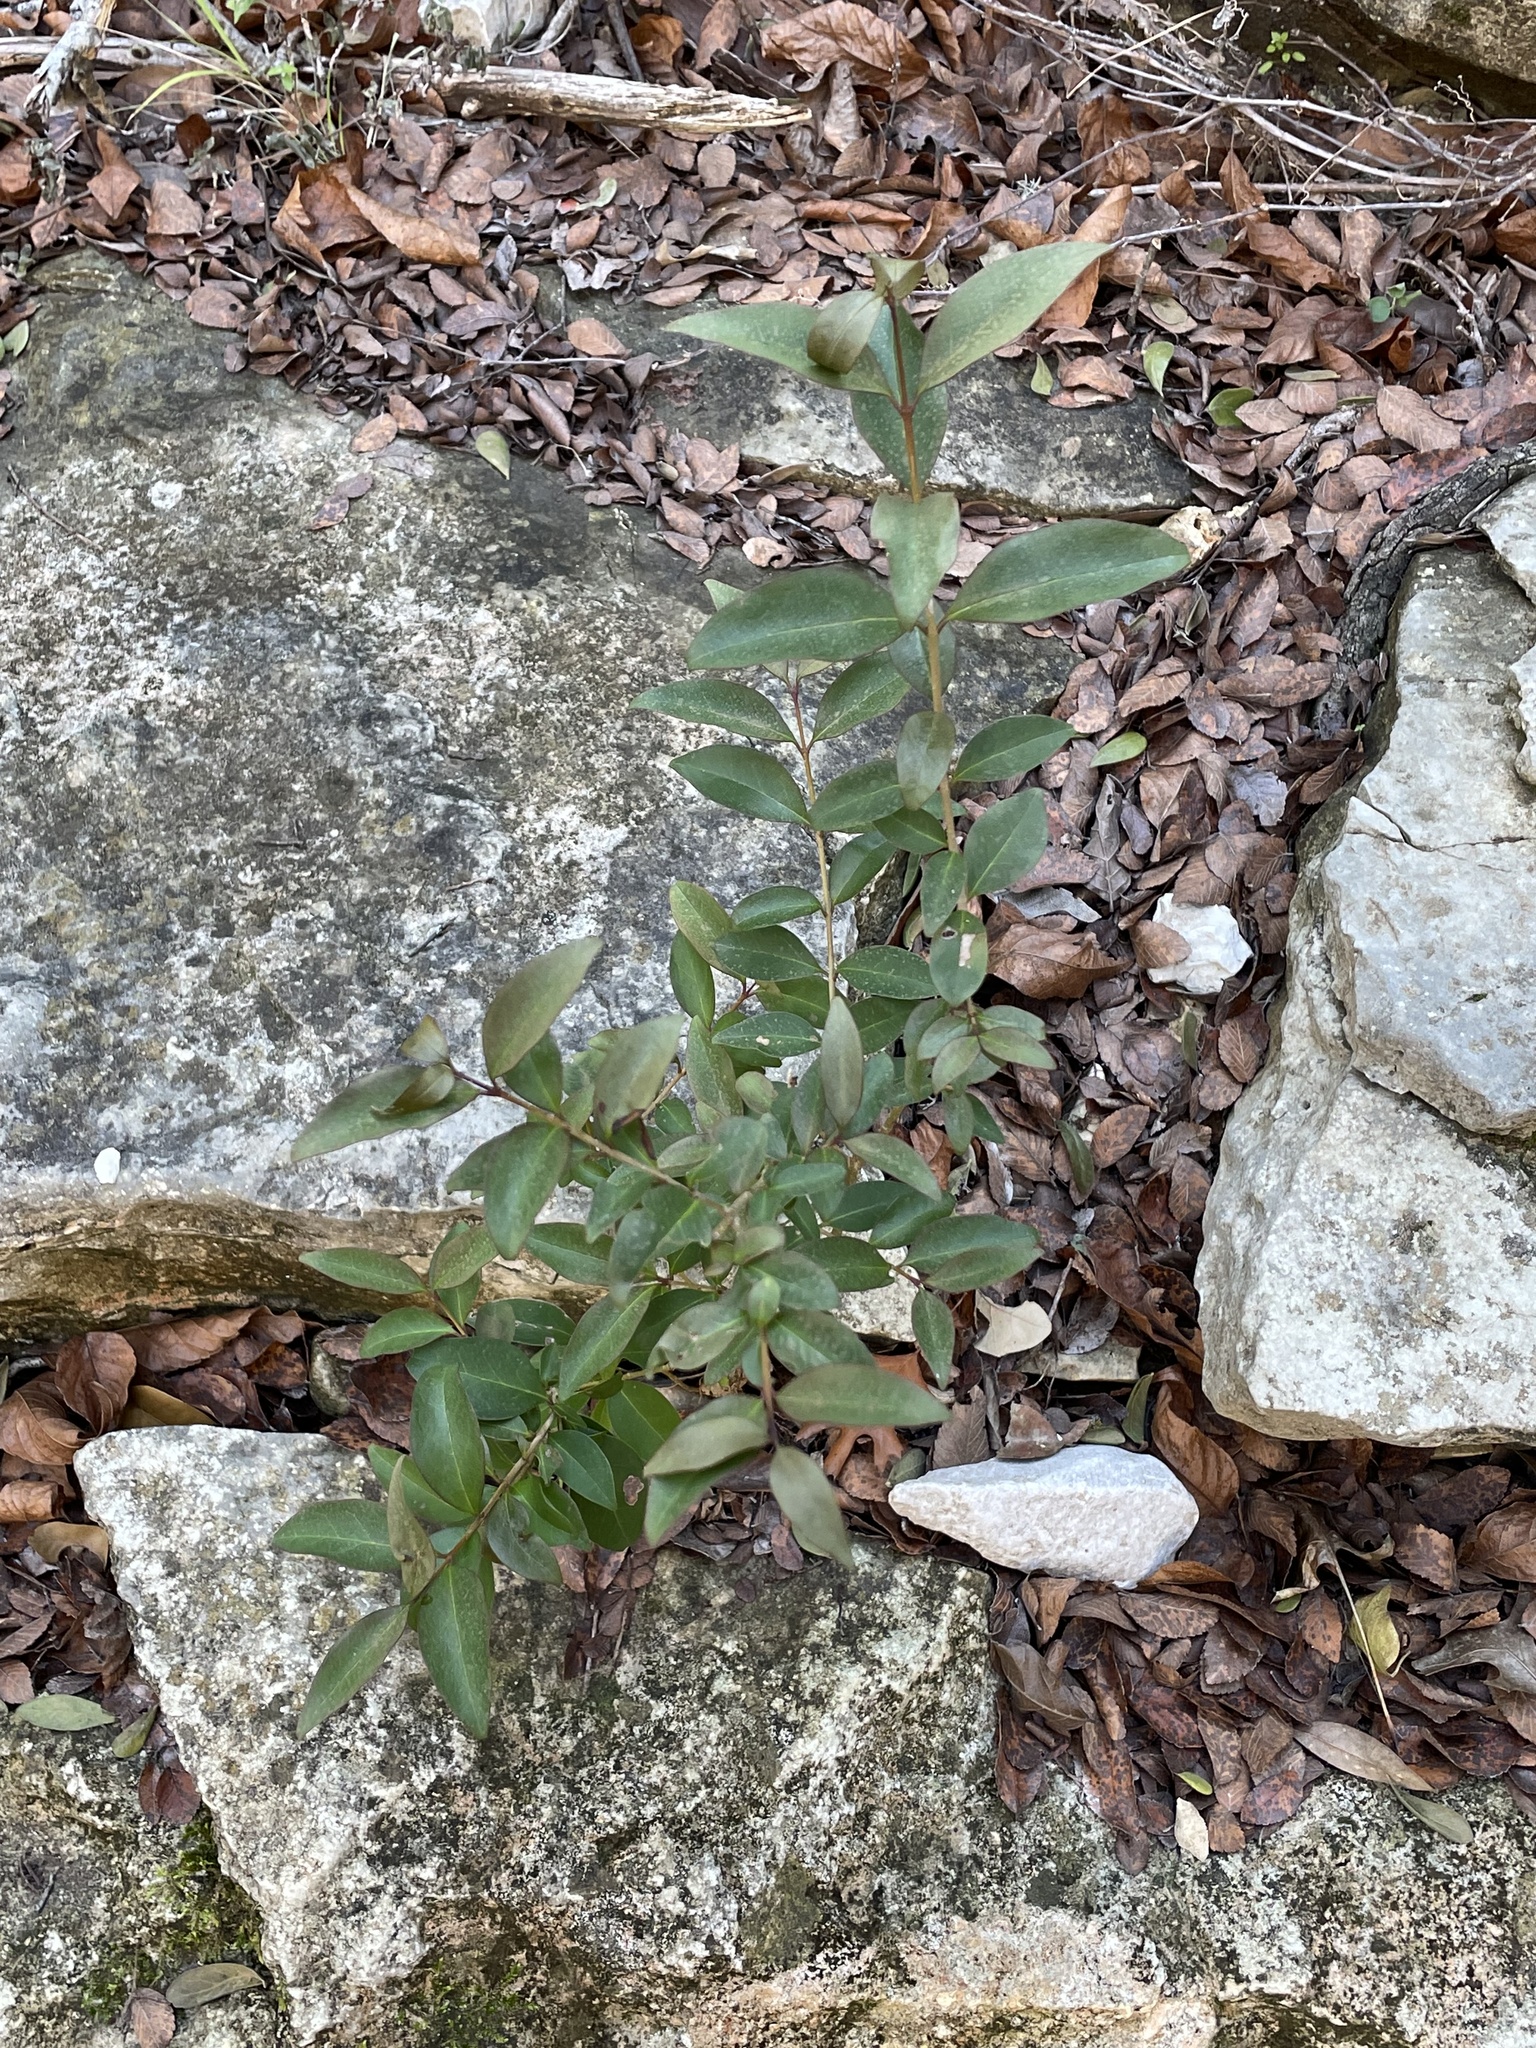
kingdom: Plantae
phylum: Tracheophyta
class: Magnoliopsida
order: Lamiales
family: Oleaceae
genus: Ligustrum
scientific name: Ligustrum lucidum
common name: Glossy privet
